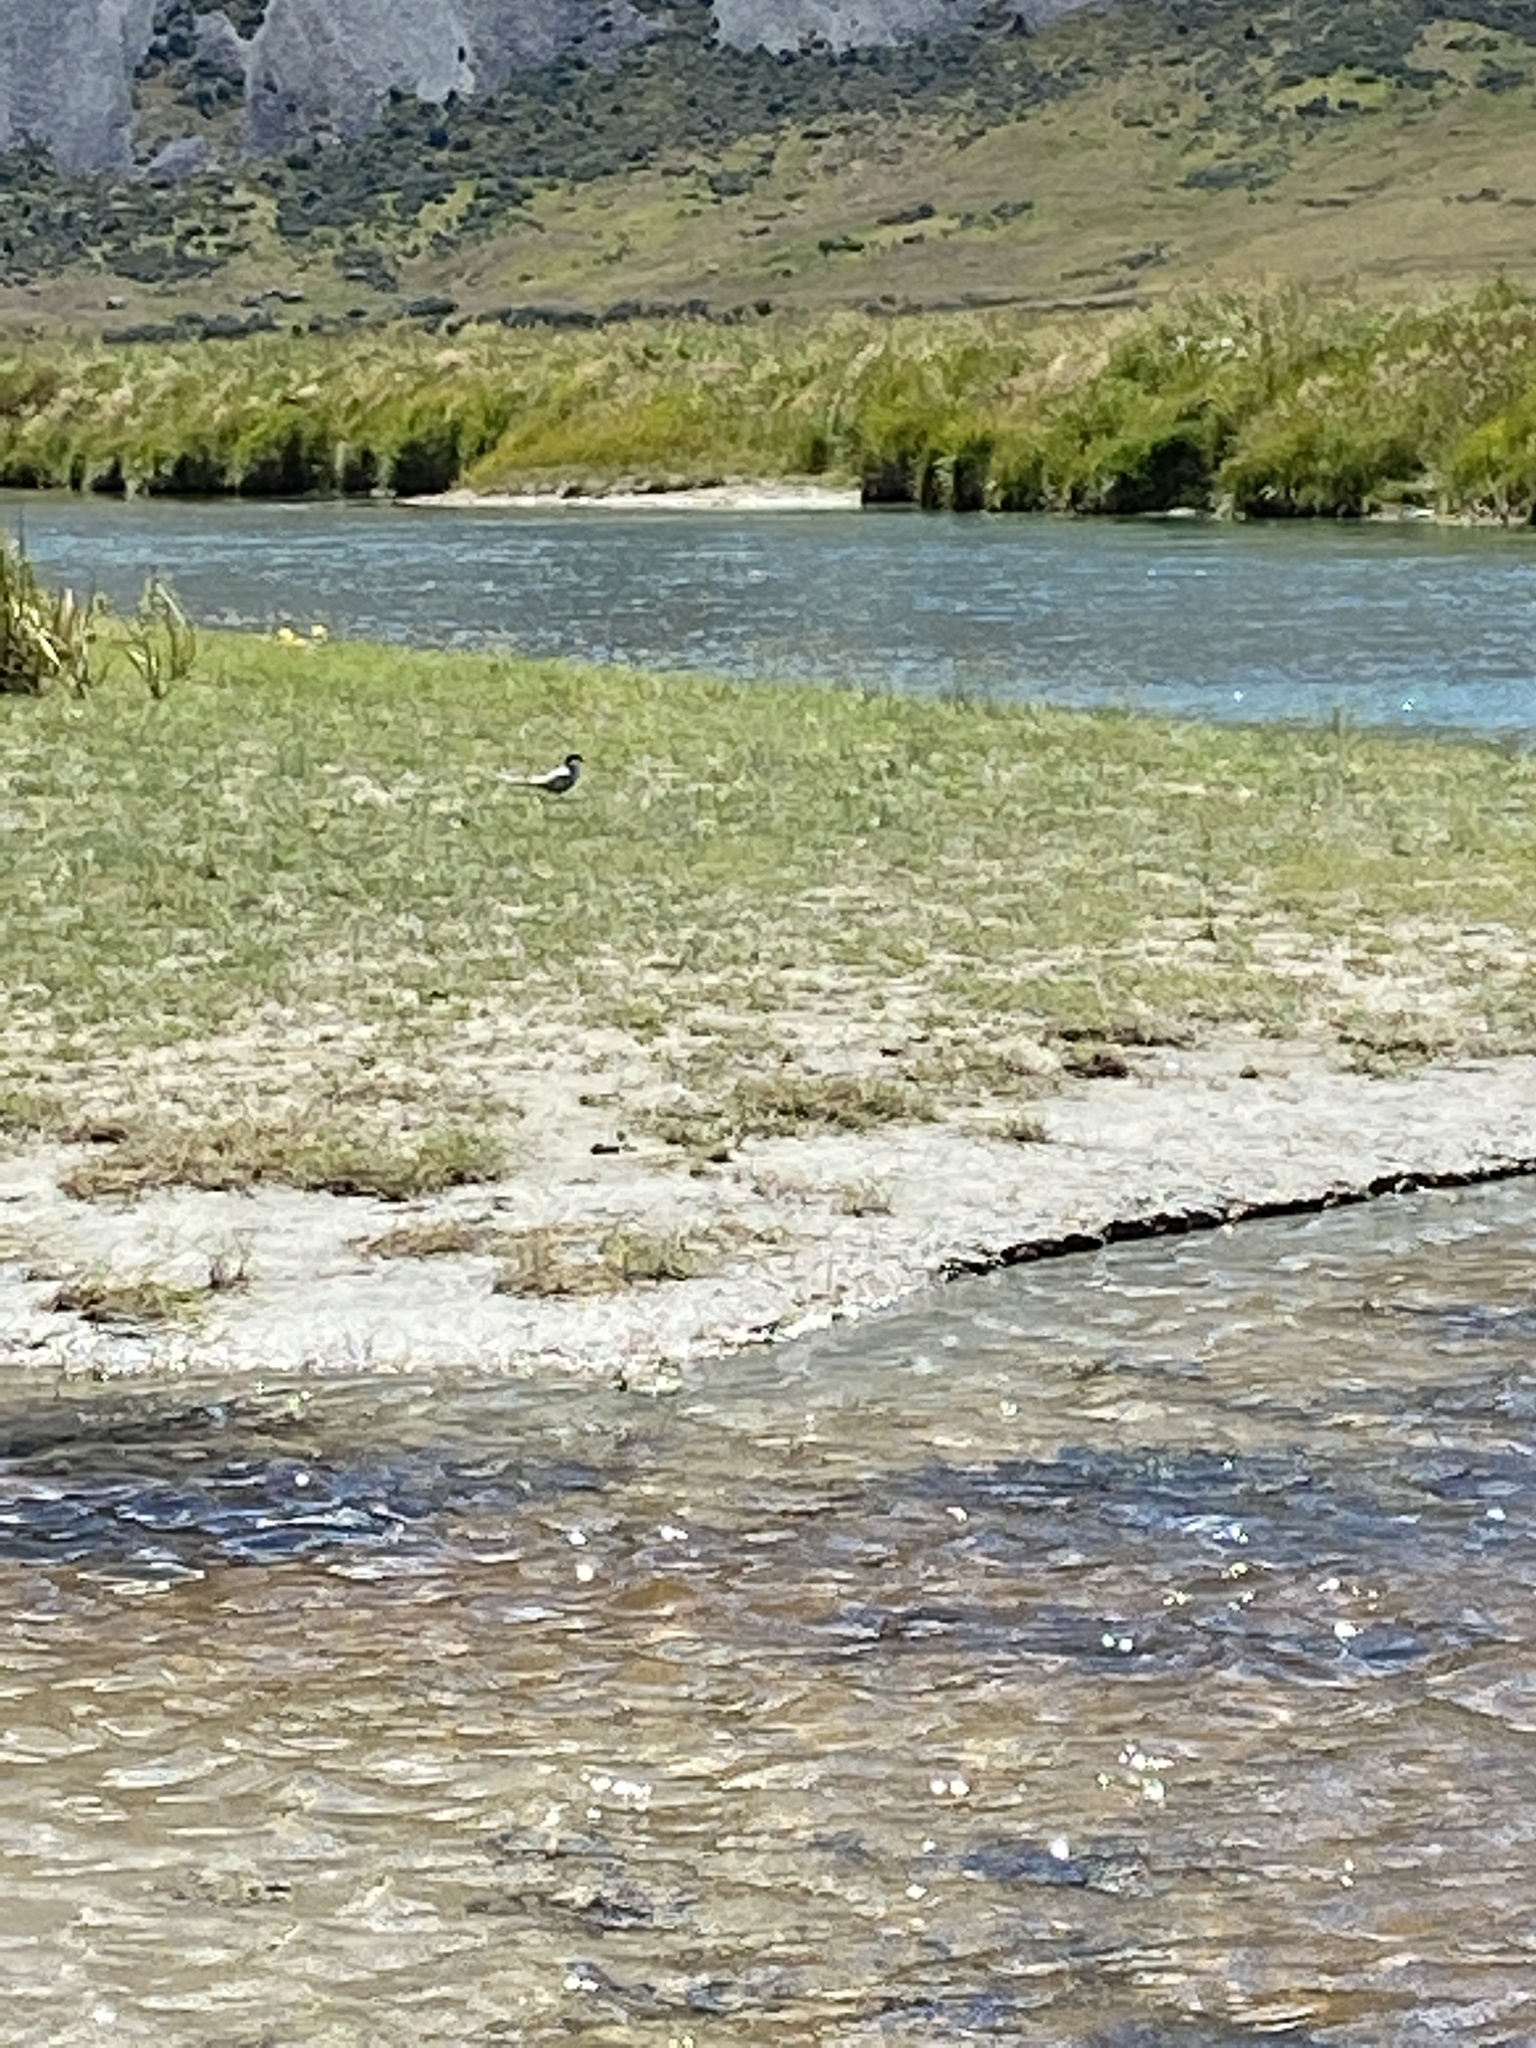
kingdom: Animalia
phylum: Chordata
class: Aves
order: Charadriiformes
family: Laridae
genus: Chlidonias
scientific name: Chlidonias albostriatus
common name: Black-fronted tern
